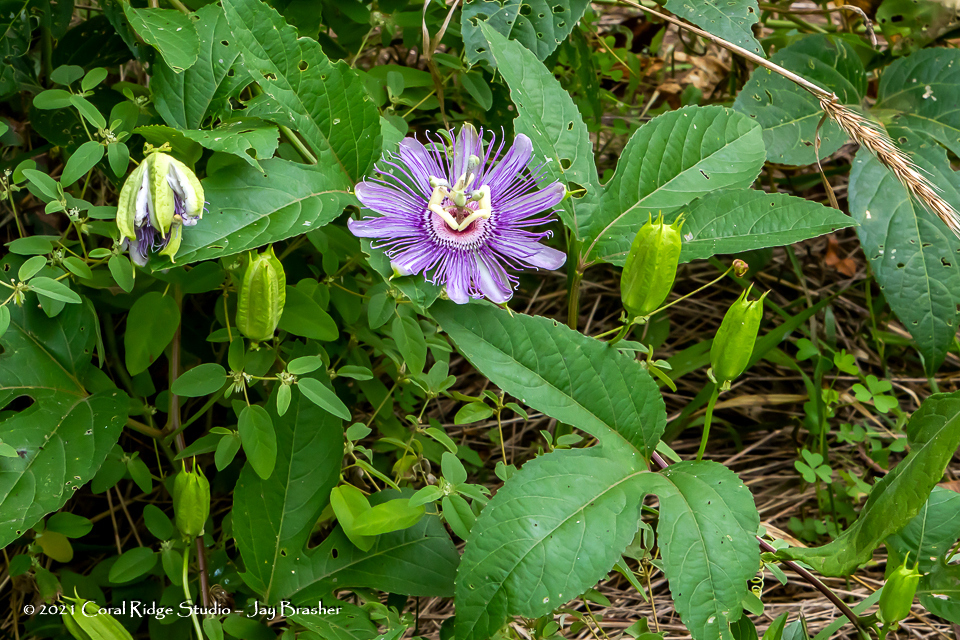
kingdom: Plantae
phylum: Tracheophyta
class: Magnoliopsida
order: Malpighiales
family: Passifloraceae
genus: Passiflora
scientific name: Passiflora incarnata
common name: Apricot-vine
